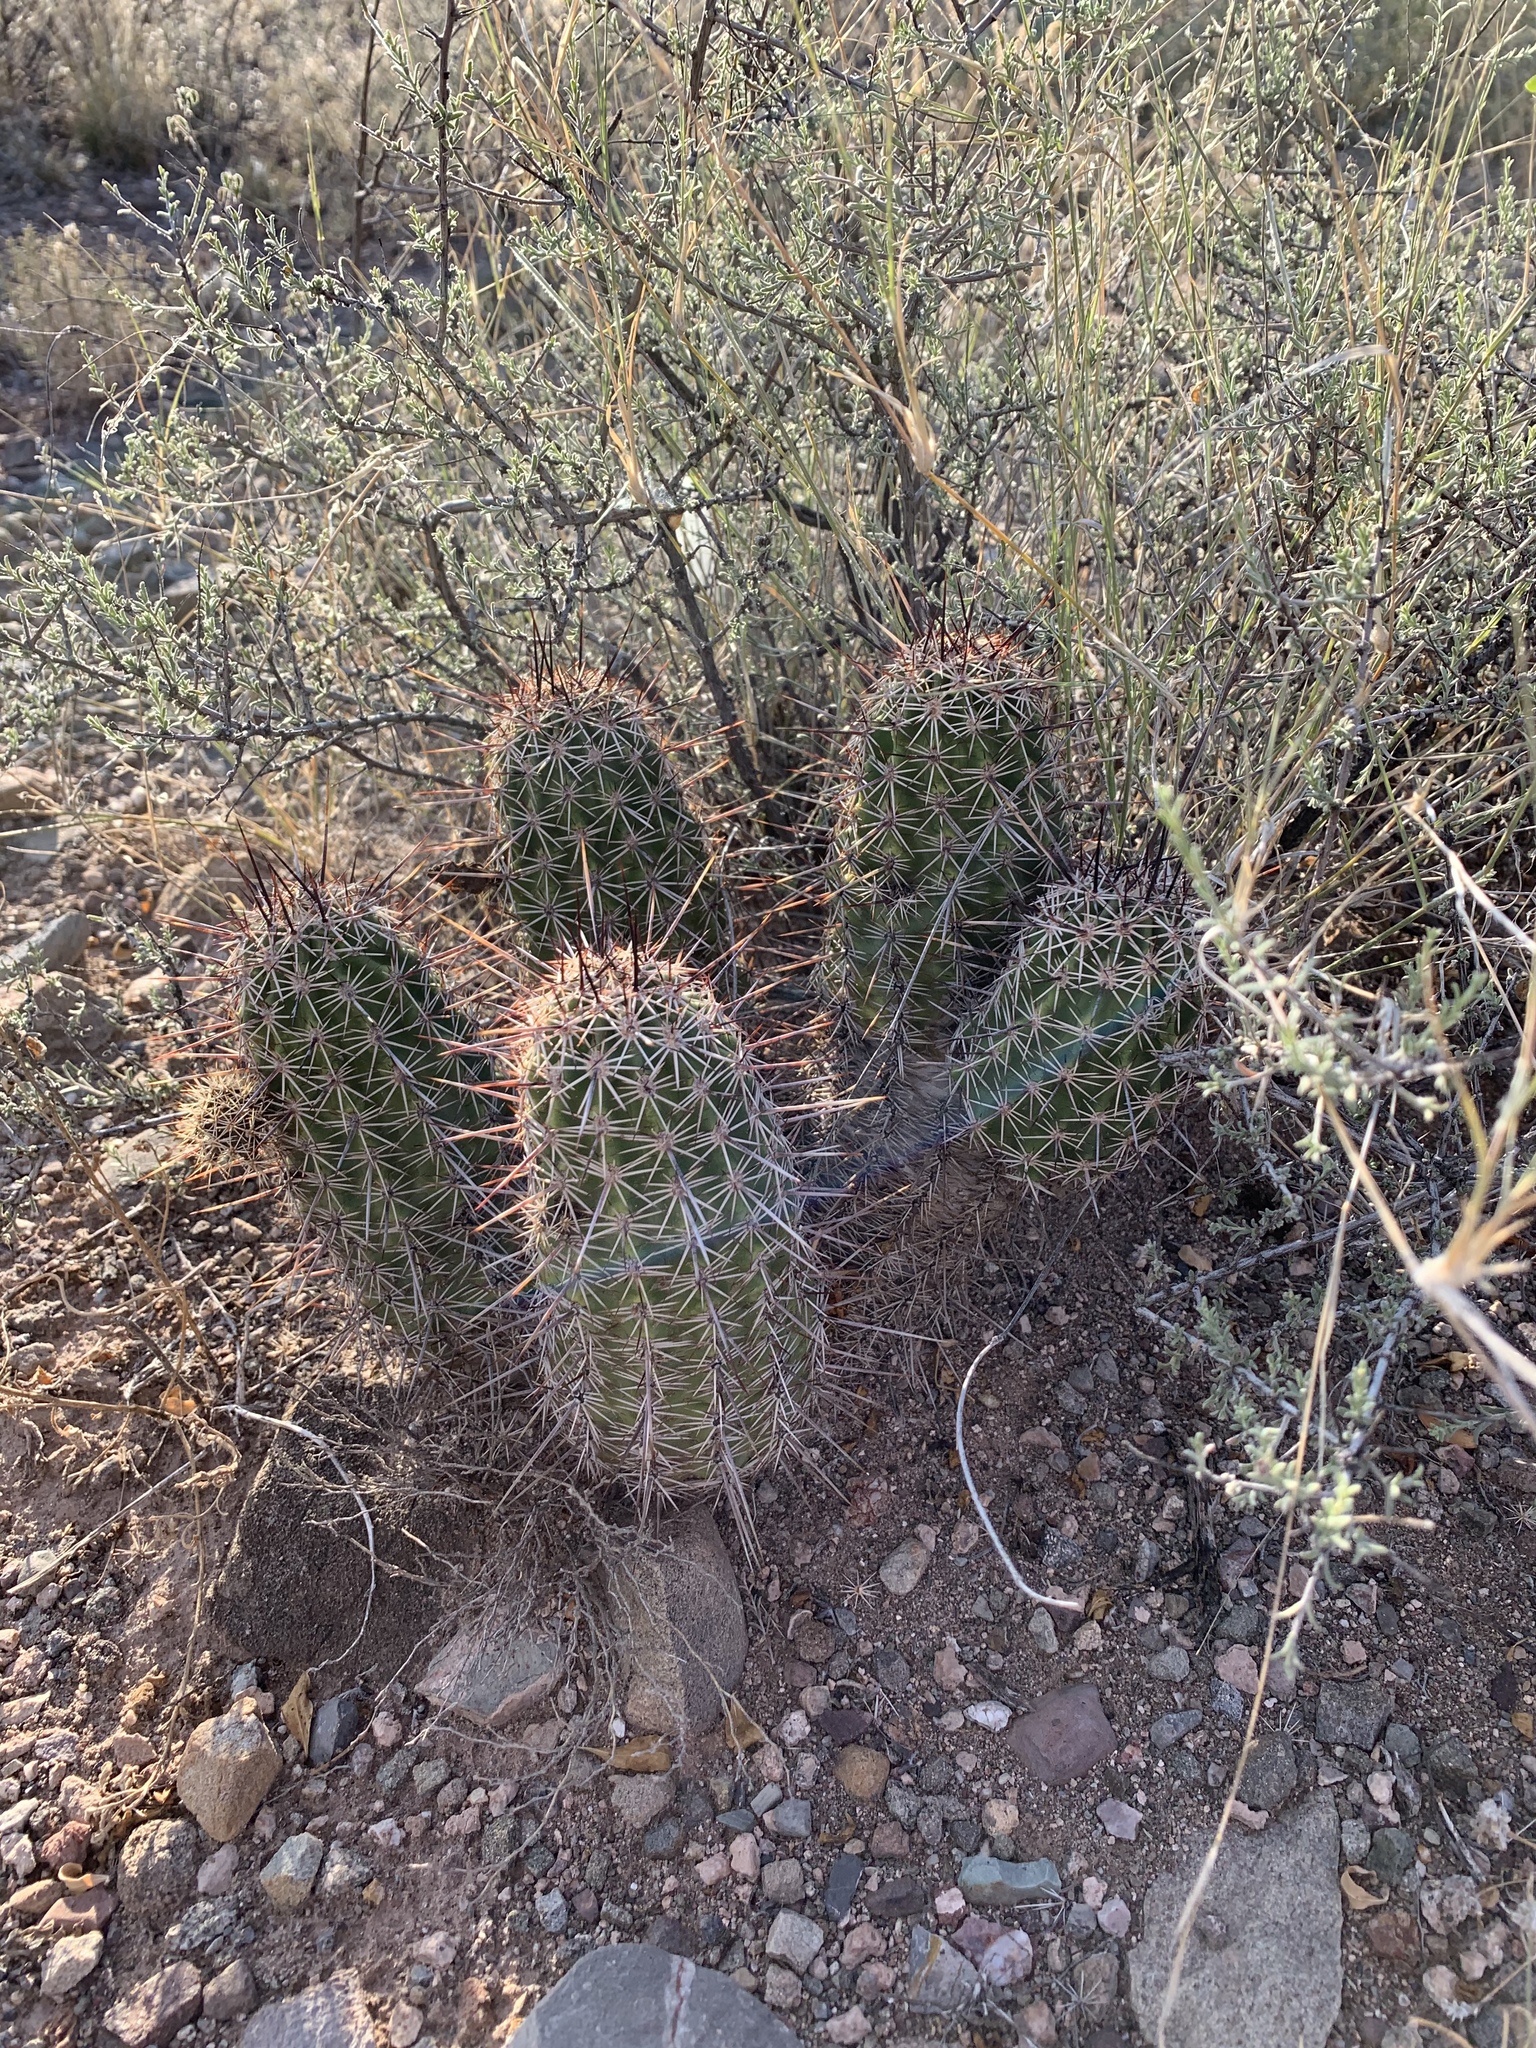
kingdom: Plantae
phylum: Tracheophyta
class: Magnoliopsida
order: Caryophyllales
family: Cactaceae
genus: Echinocereus
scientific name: Echinocereus fasciculatus
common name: Bundle hedgehog
